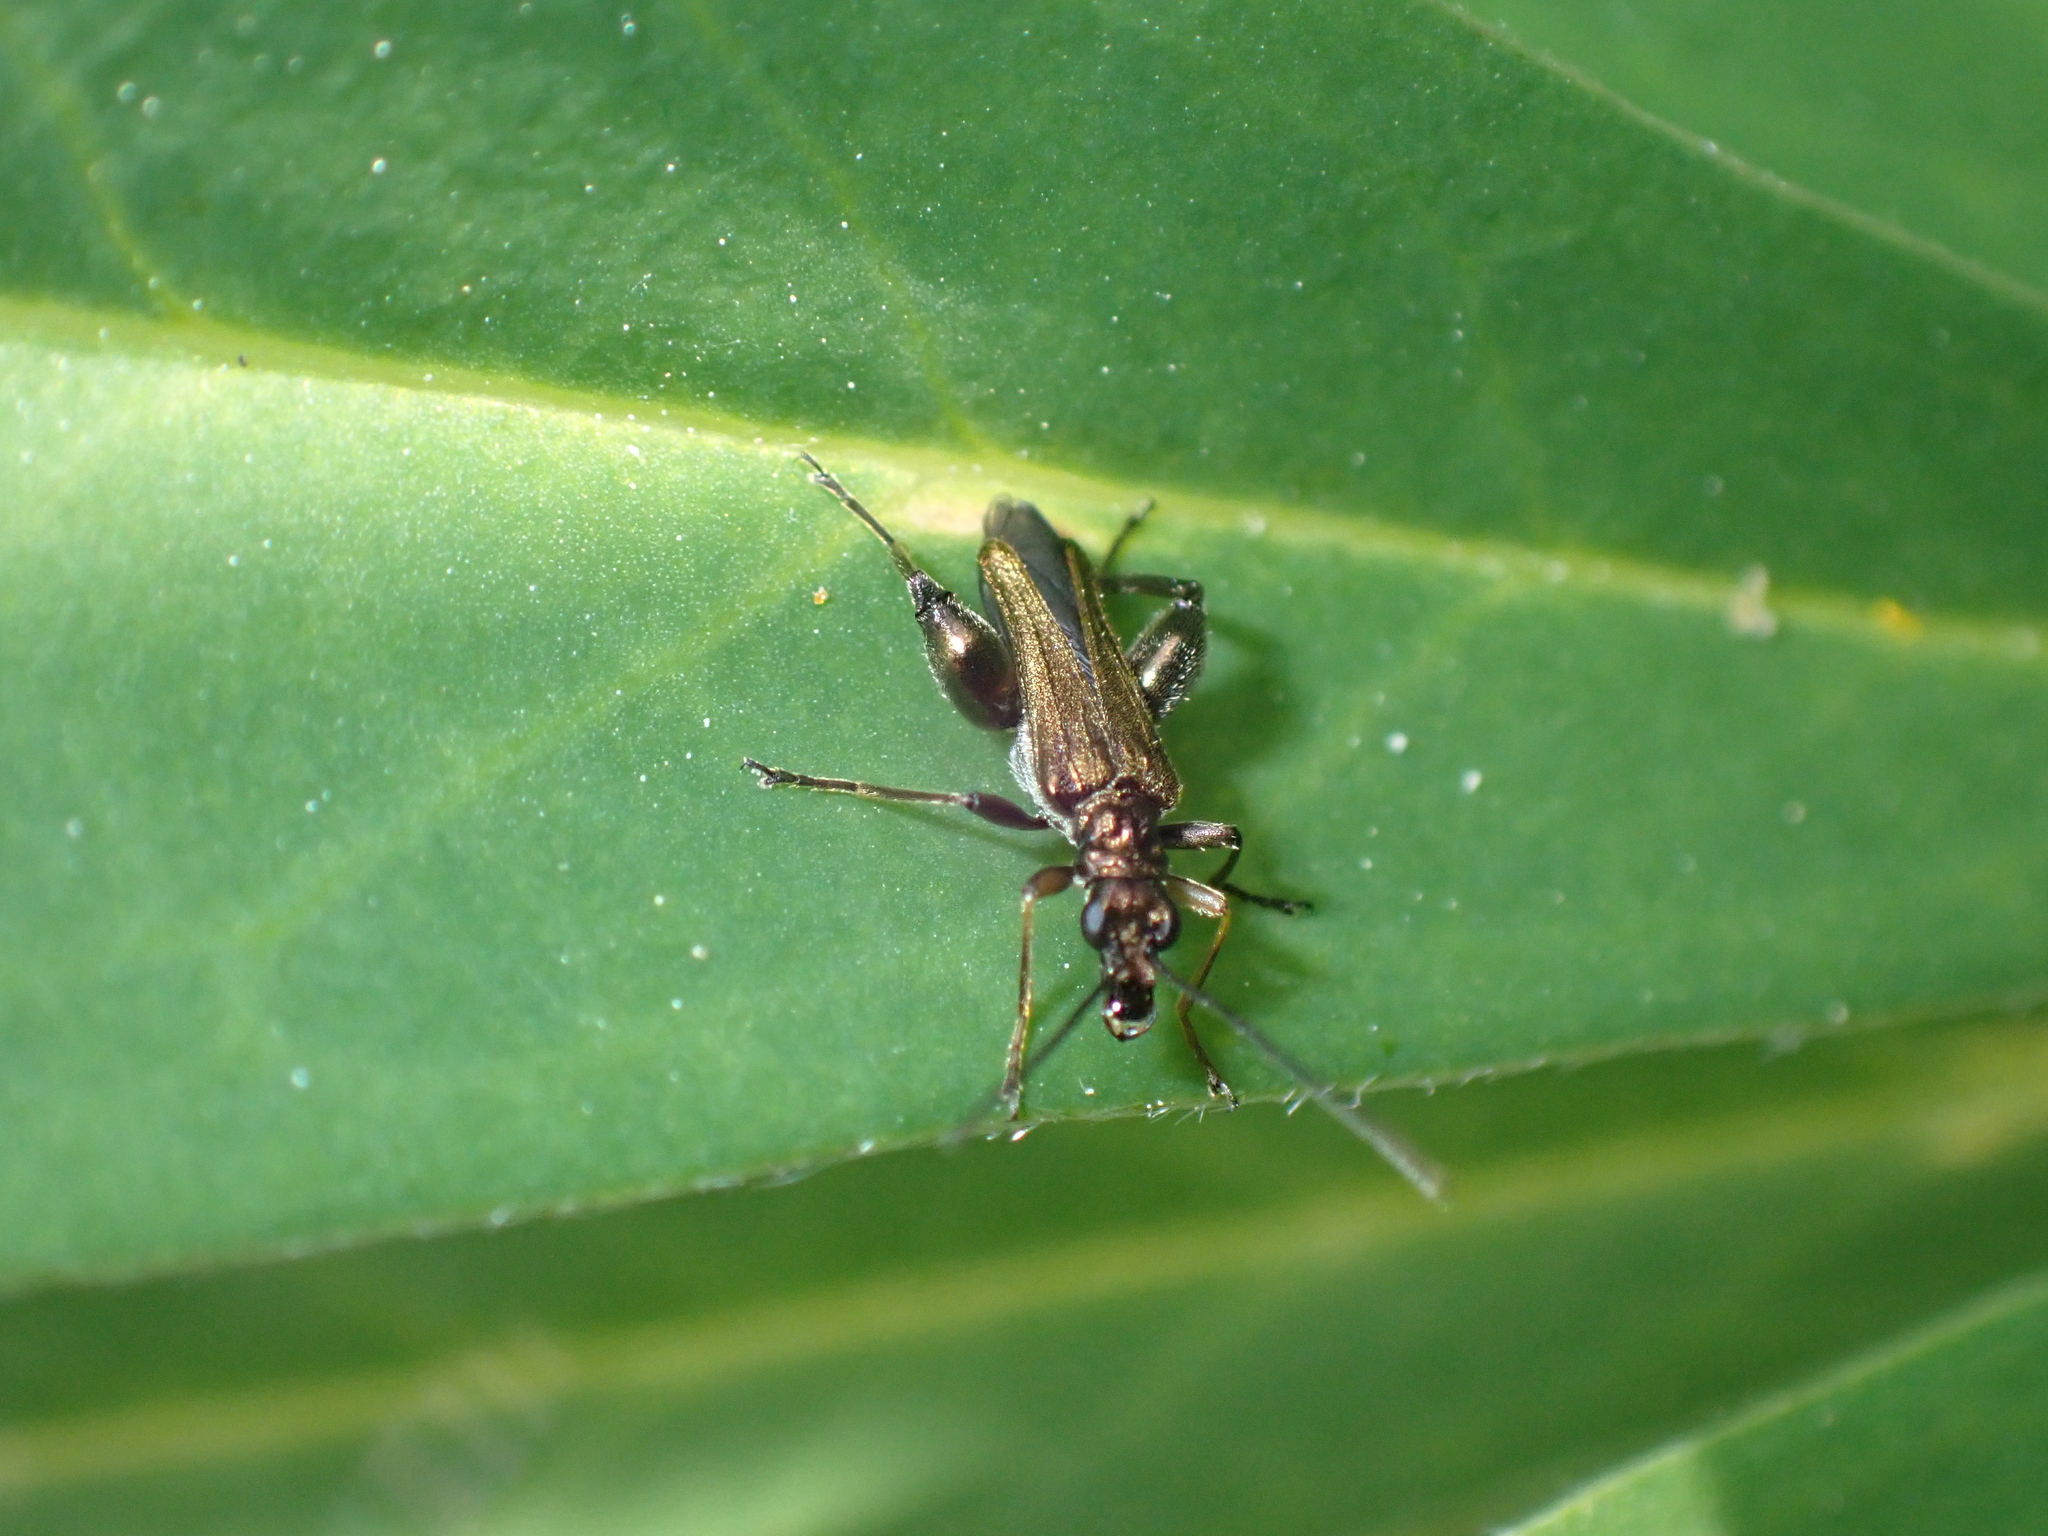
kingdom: Animalia
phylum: Arthropoda
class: Insecta
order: Coleoptera
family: Oedemeridae
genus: Oedemera
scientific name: Oedemera flavipes
